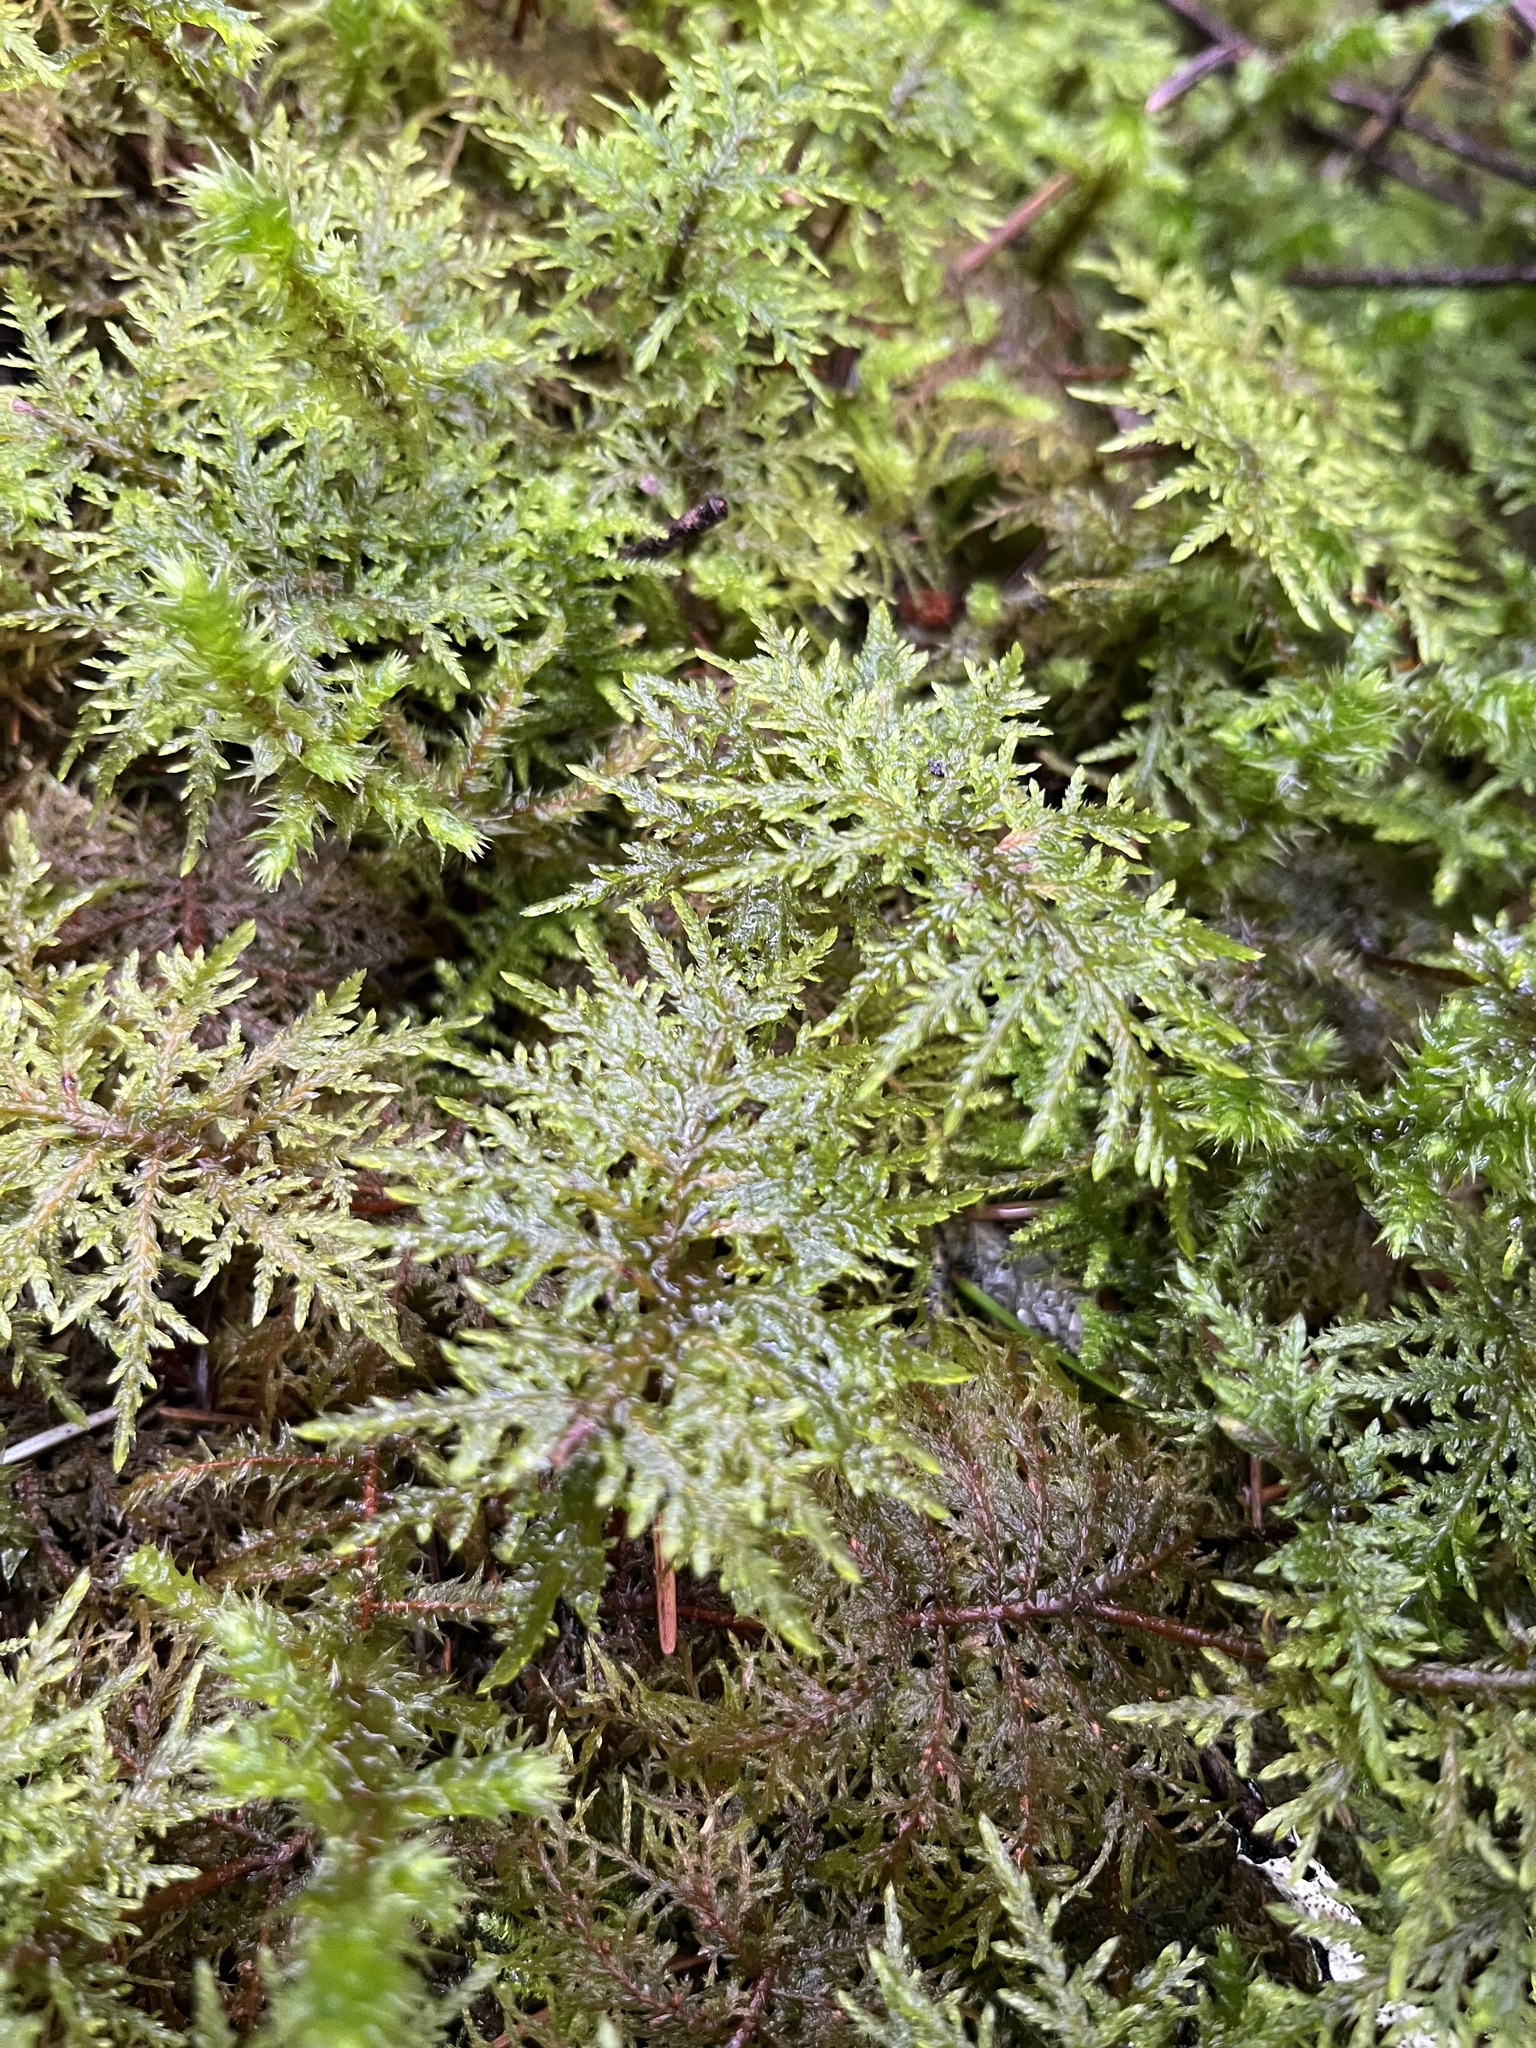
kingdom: Plantae
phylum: Bryophyta
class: Bryopsida
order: Hypnales
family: Hylocomiaceae
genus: Hylocomium
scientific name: Hylocomium splendens
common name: Stairstep moss
